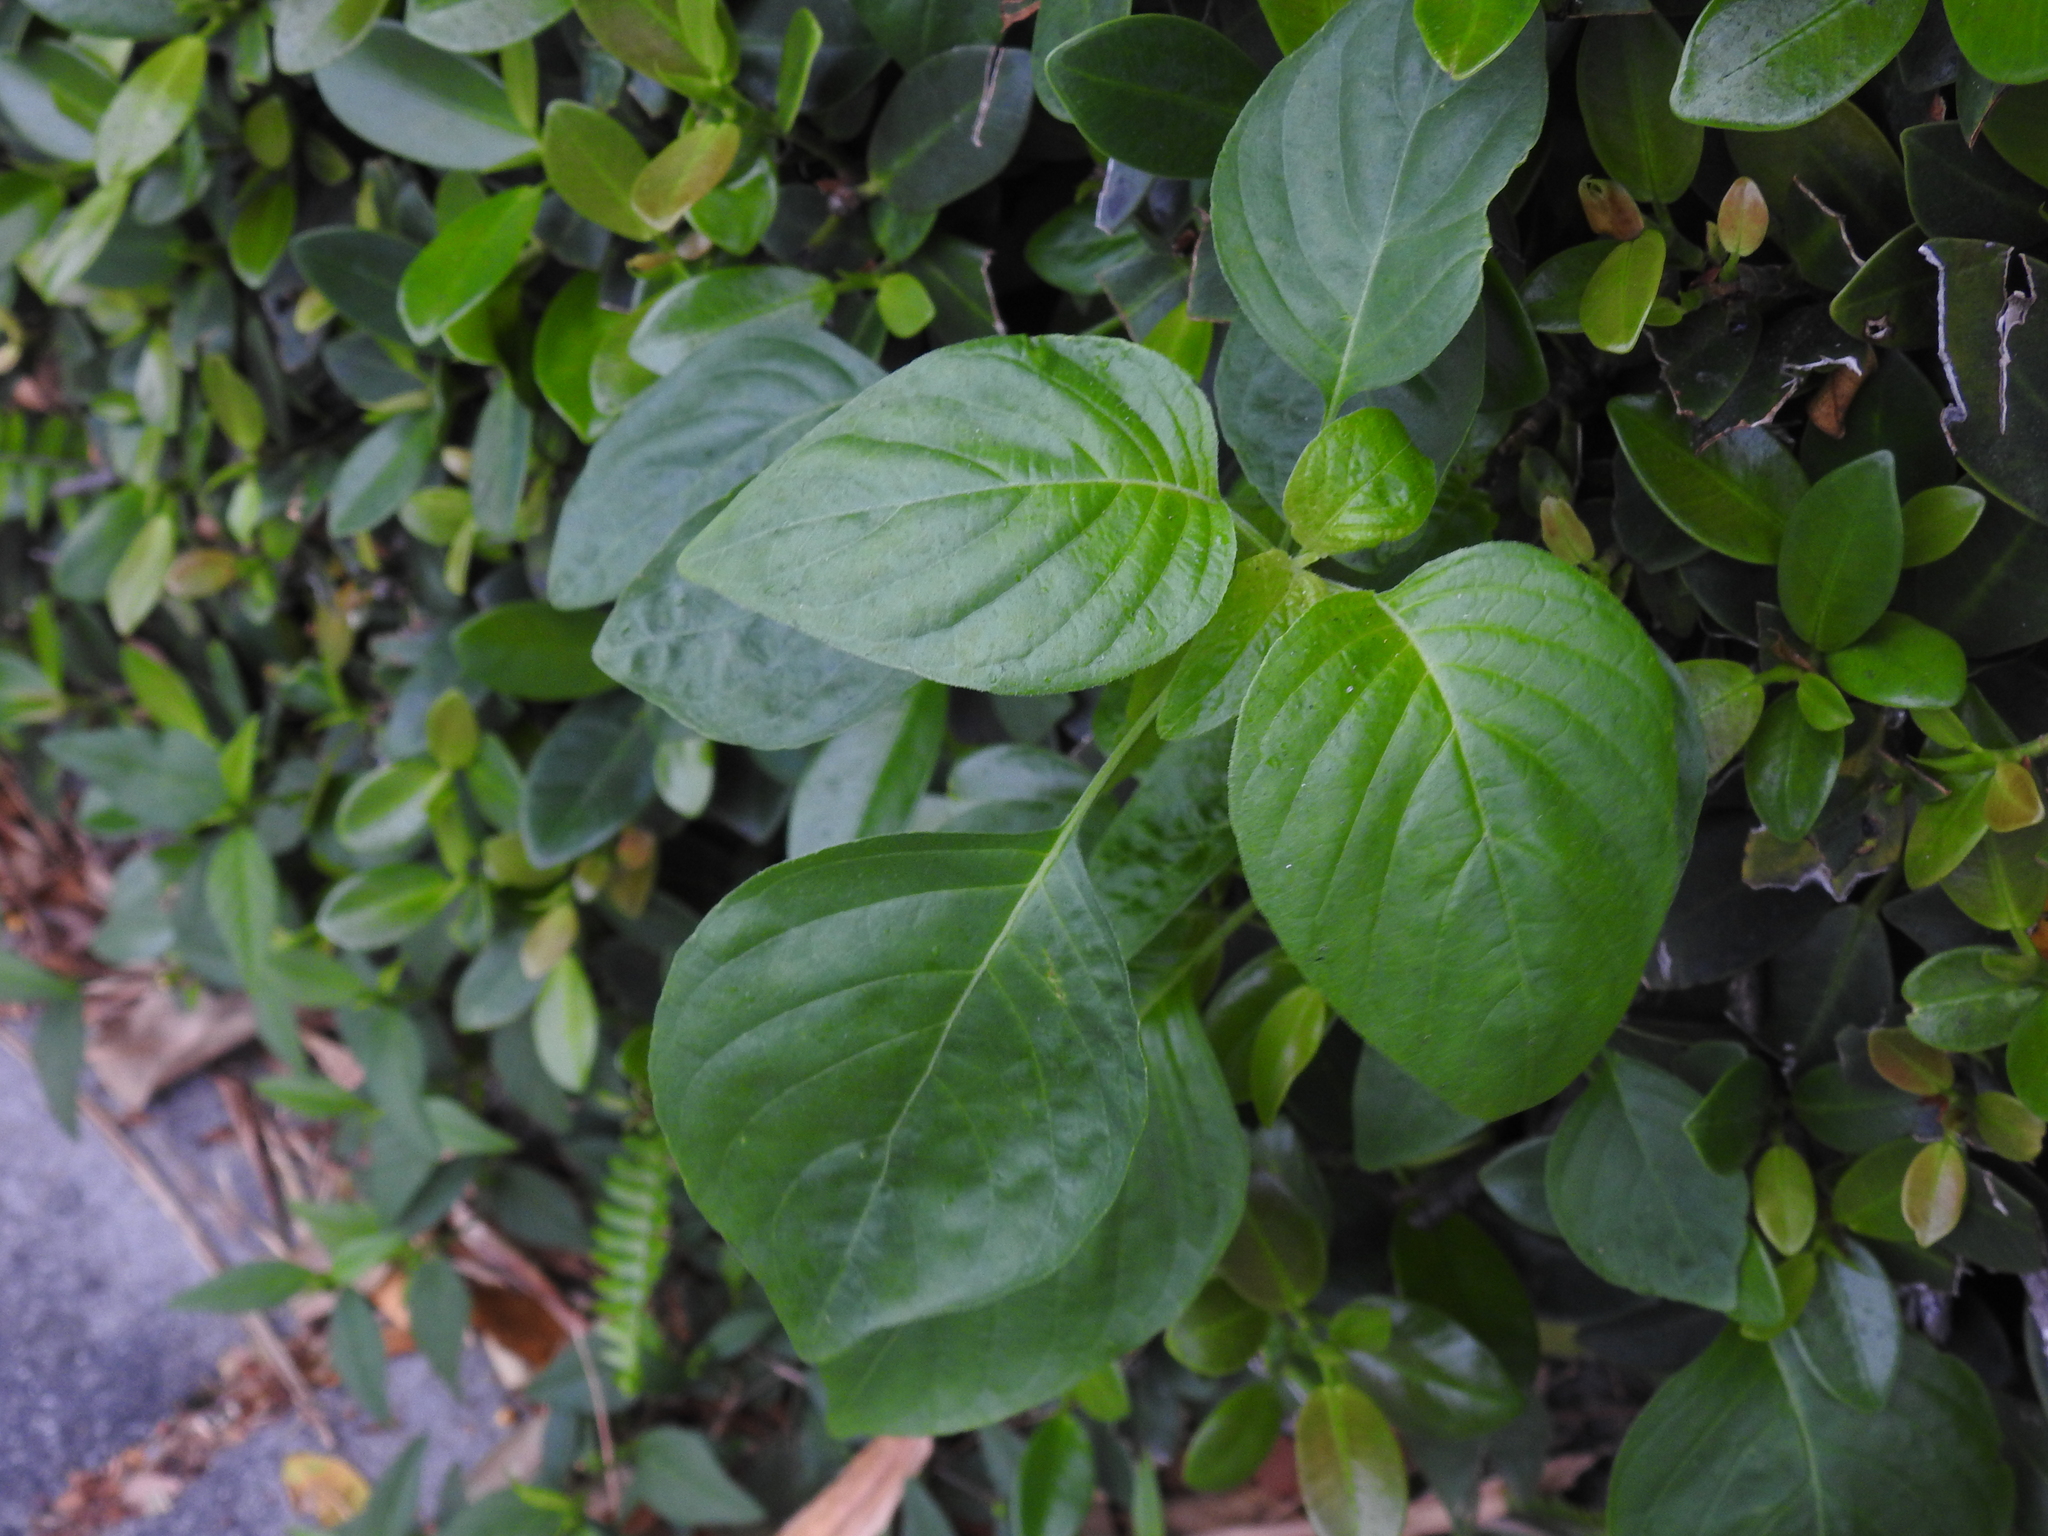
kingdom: Plantae
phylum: Tracheophyta
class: Magnoliopsida
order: Lamiales
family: Acanthaceae
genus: Ruellia
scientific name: Ruellia blechum
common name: Browne's blechum
